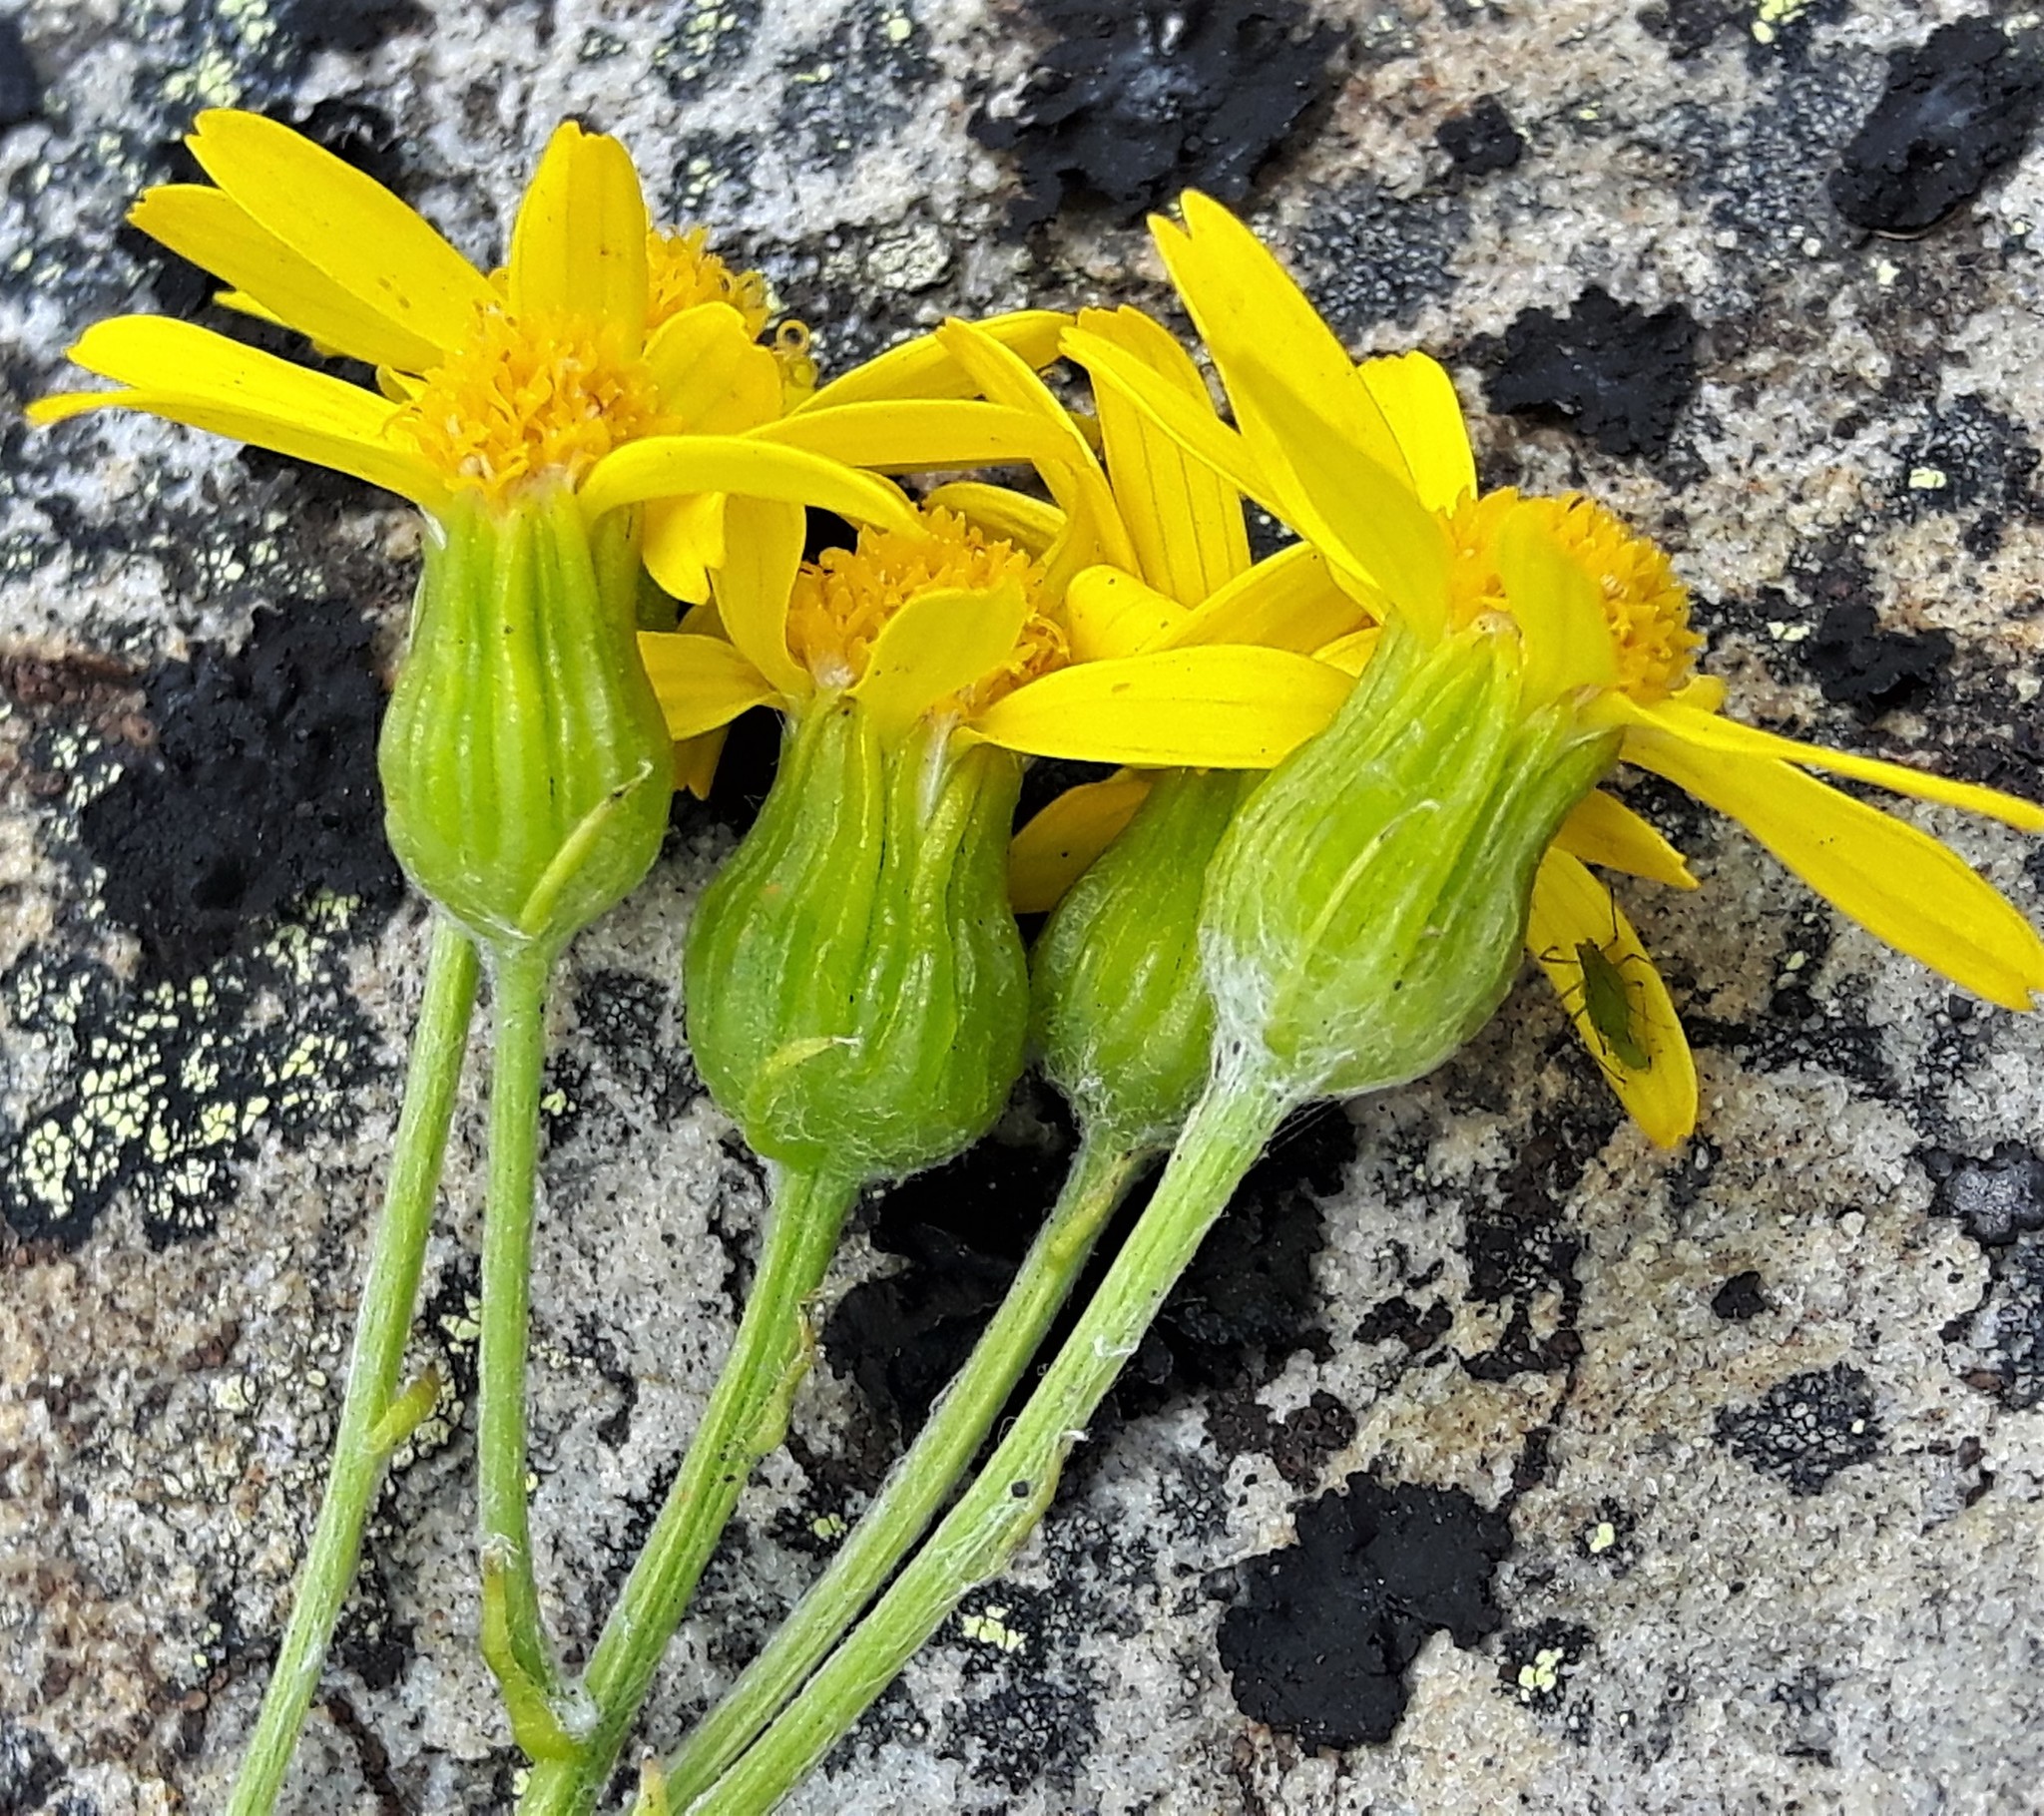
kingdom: Plantae
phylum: Tracheophyta
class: Magnoliopsida
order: Asterales
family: Asteraceae
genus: Packera
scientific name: Packera cana
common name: Woolly groundsel
